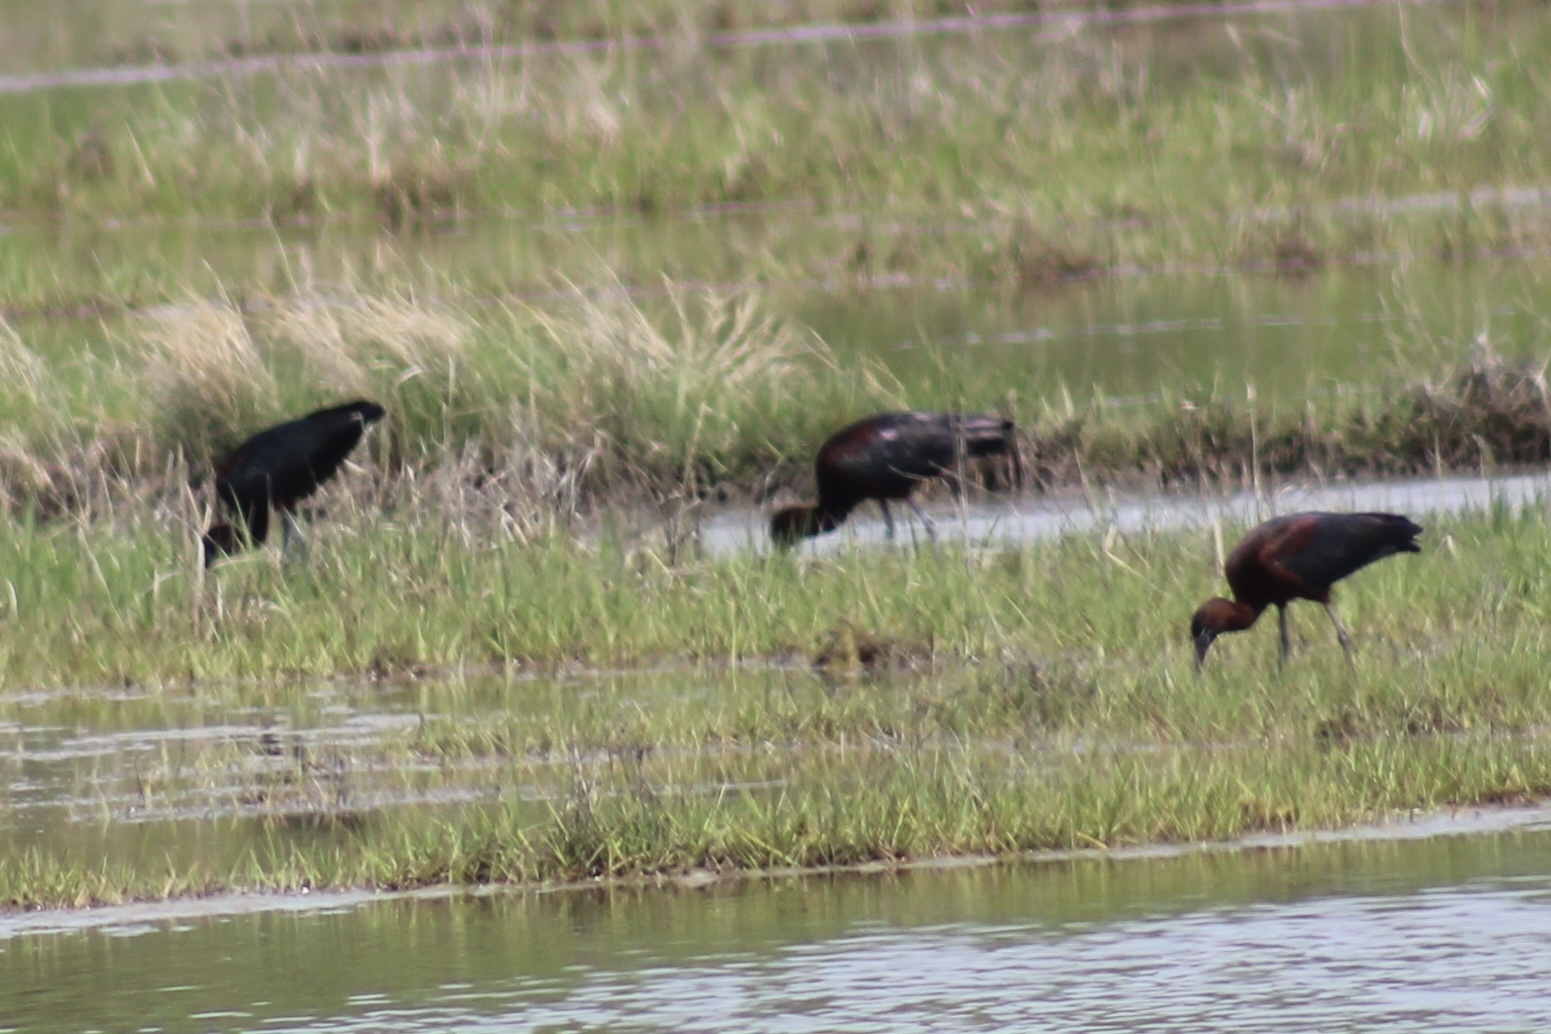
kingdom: Animalia
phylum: Chordata
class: Aves
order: Pelecaniformes
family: Threskiornithidae
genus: Plegadis
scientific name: Plegadis falcinellus
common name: Glossy ibis
